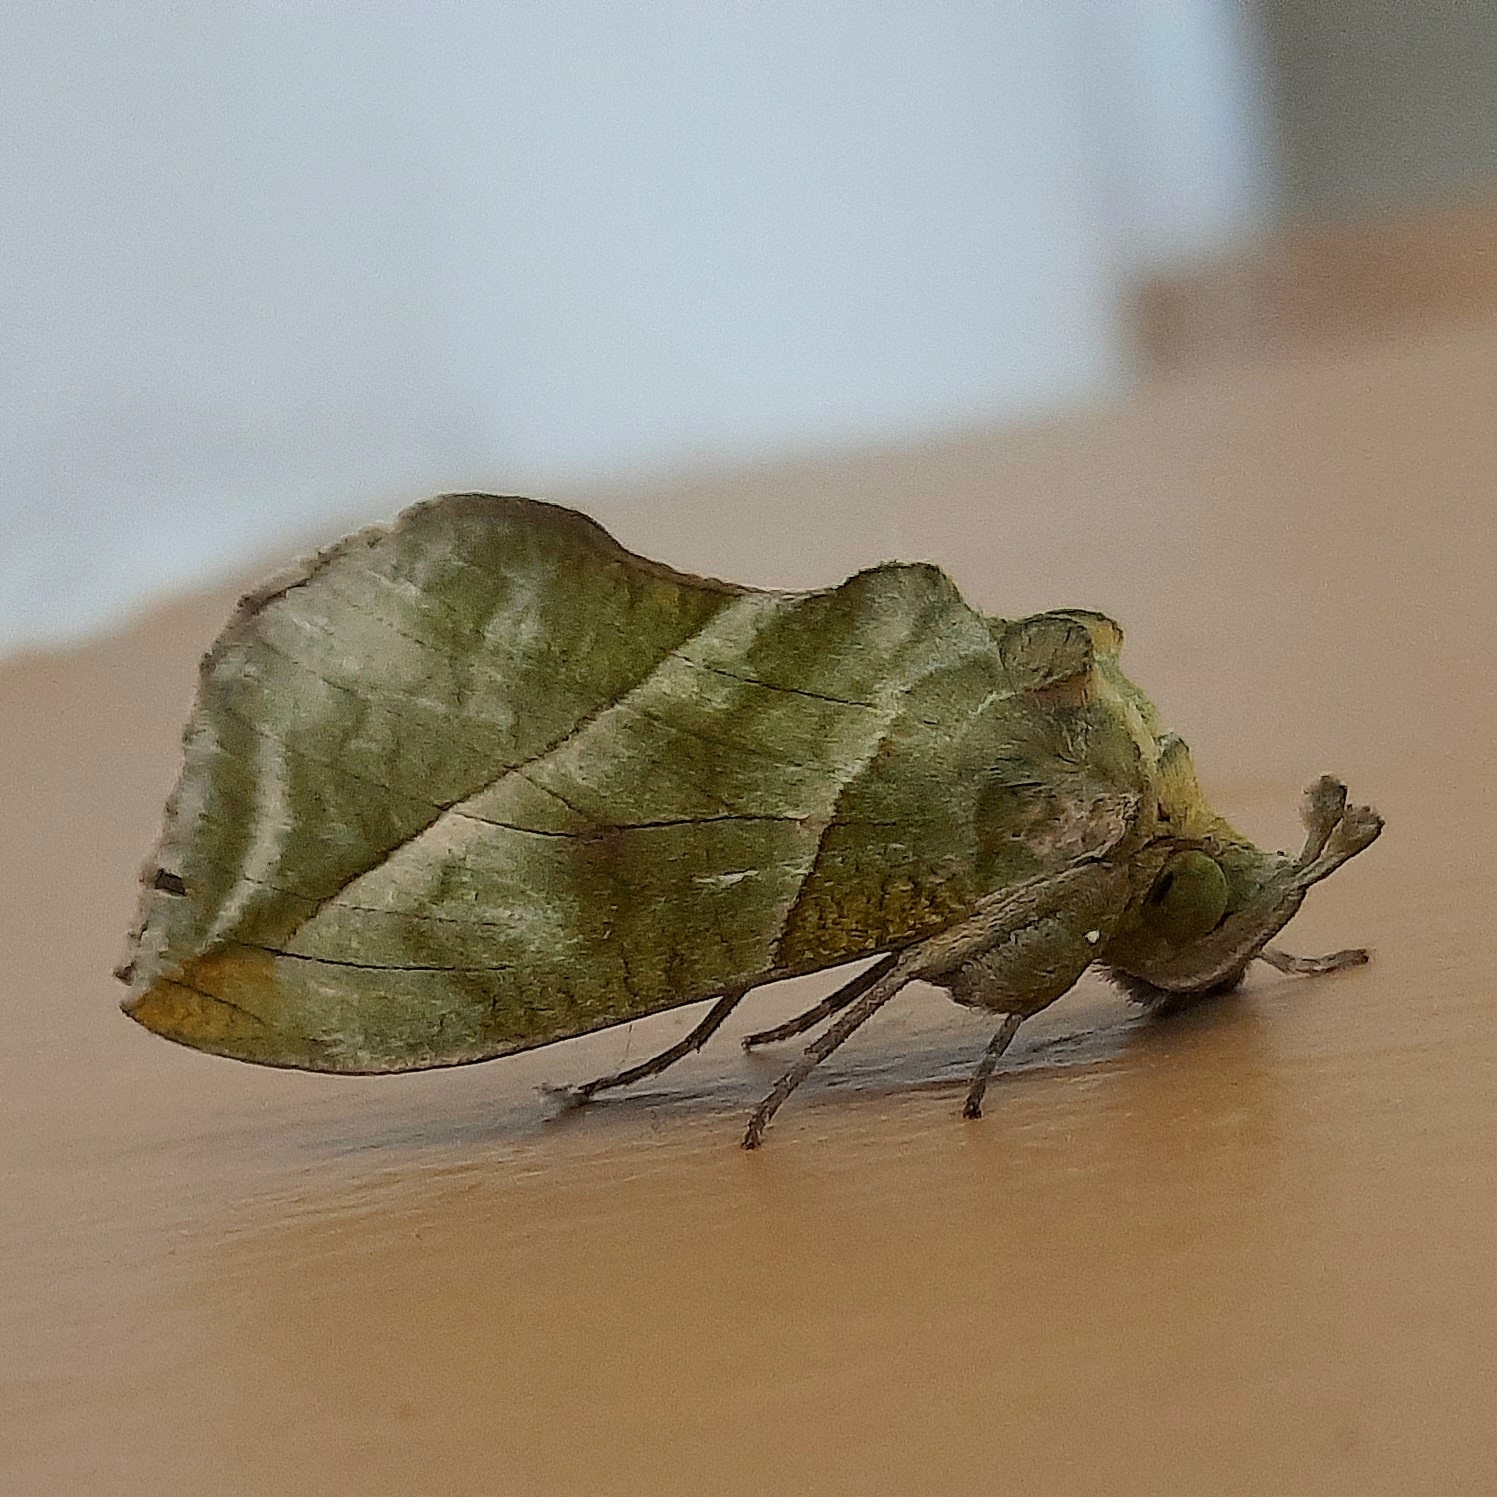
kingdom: Animalia
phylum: Arthropoda
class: Insecta
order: Lepidoptera
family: Erebidae
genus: Eudocima
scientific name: Eudocima hypermnestra
